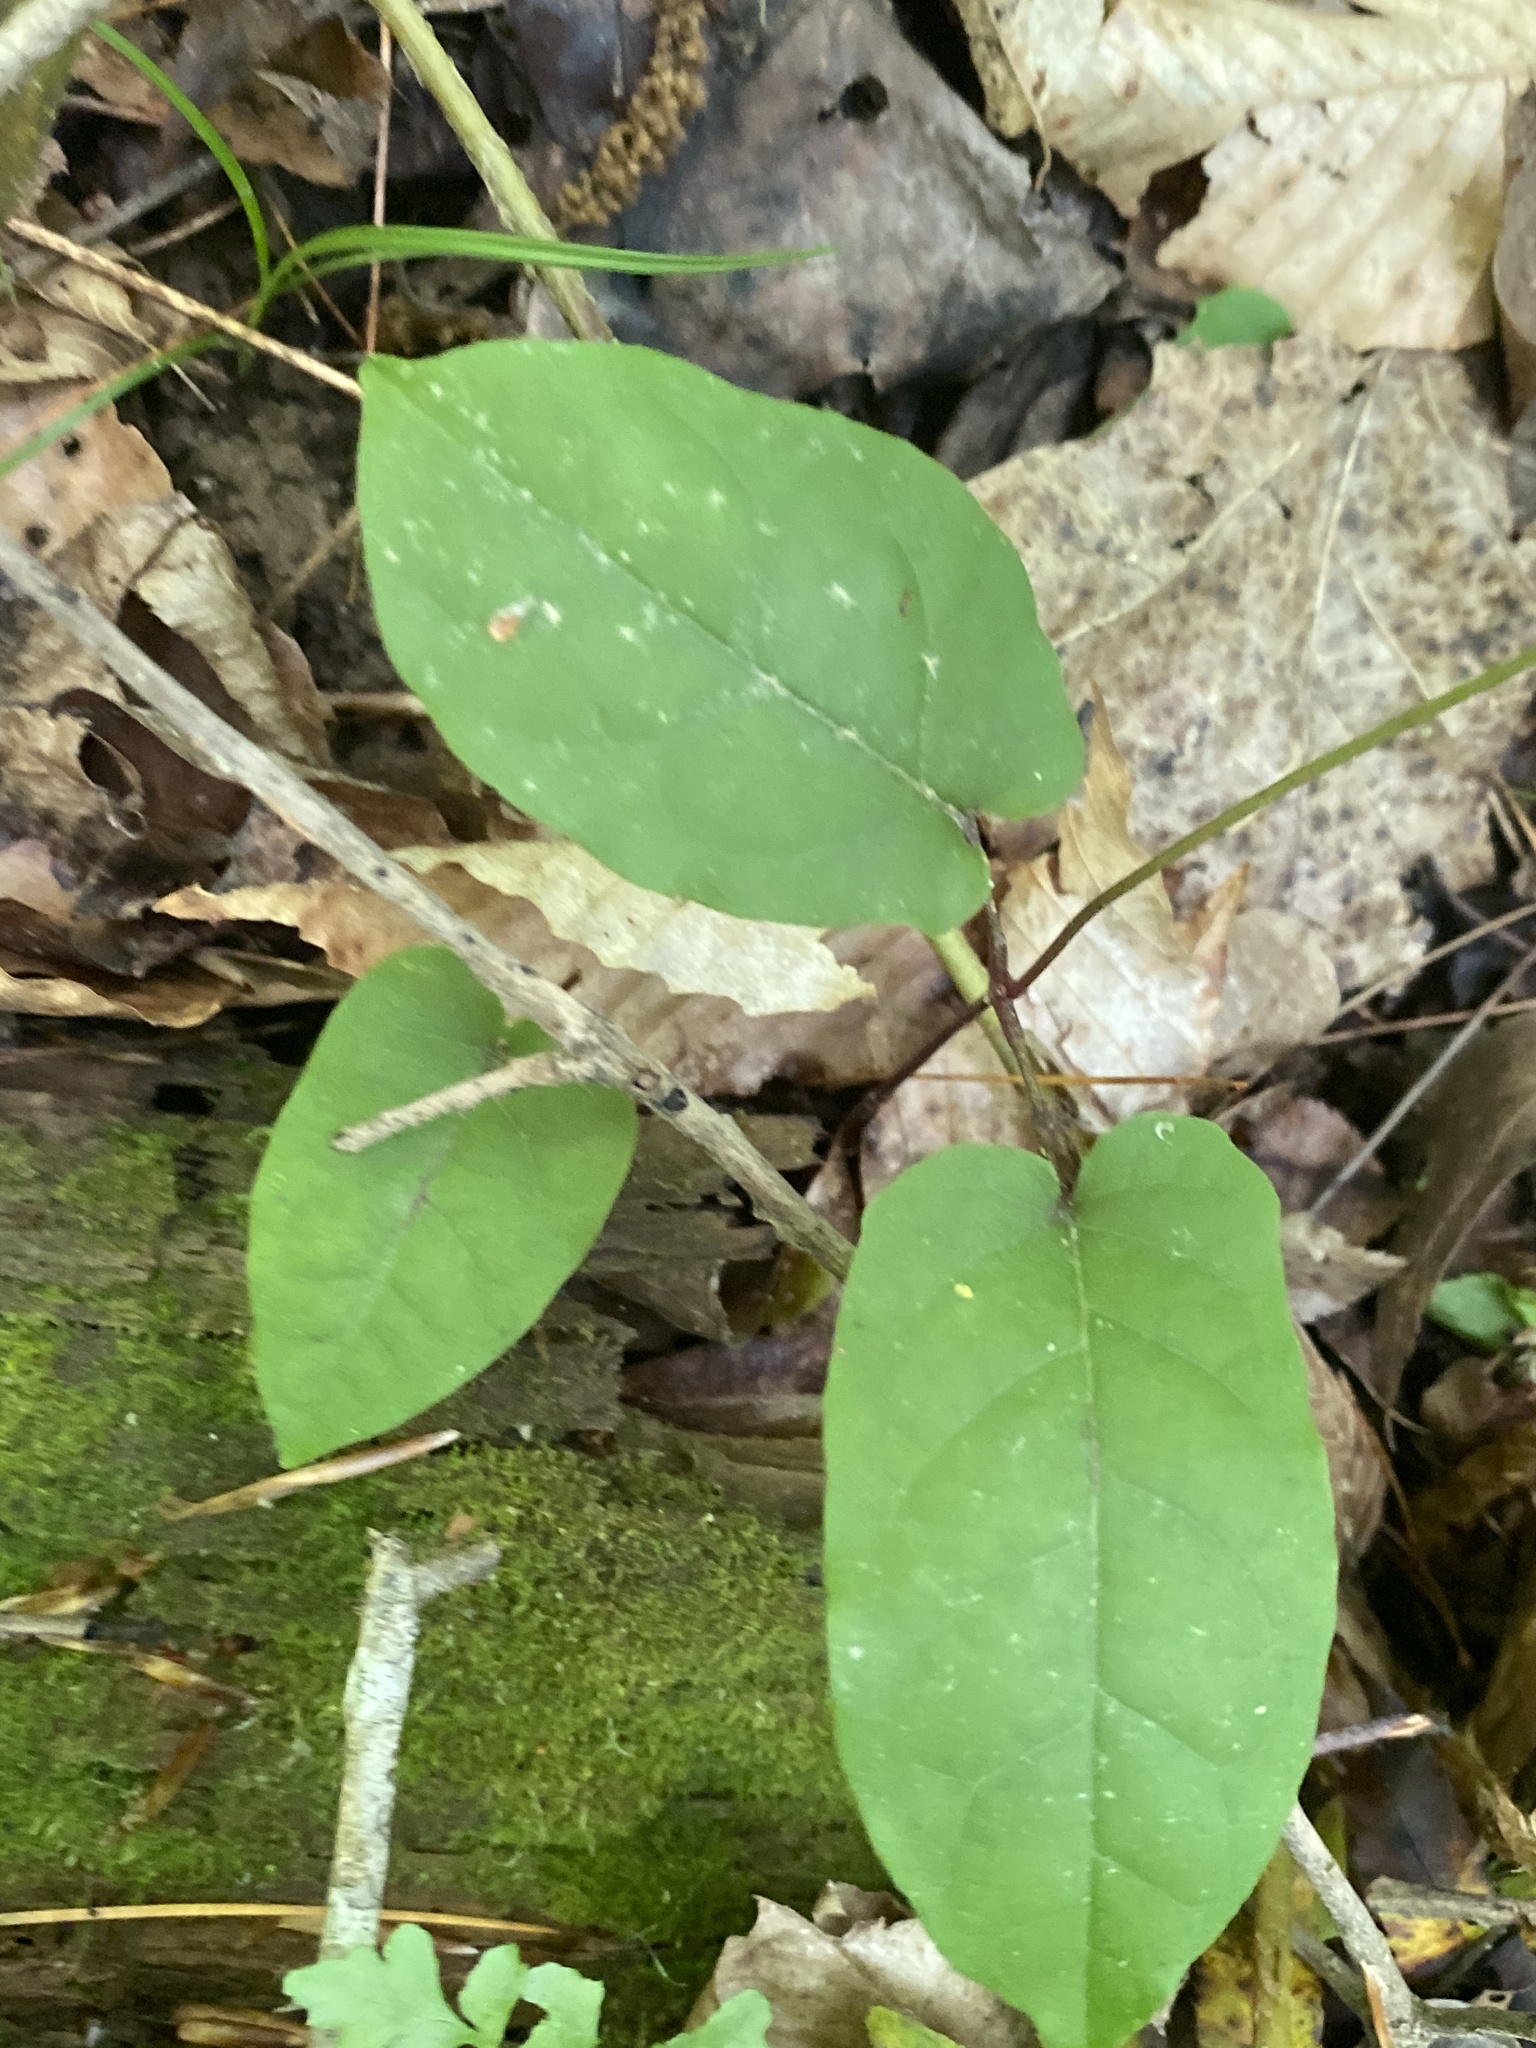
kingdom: Plantae
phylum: Tracheophyta
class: Magnoliopsida
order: Lamiales
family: Bignoniaceae
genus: Bignonia
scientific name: Bignonia capreolata
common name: Crossvine
